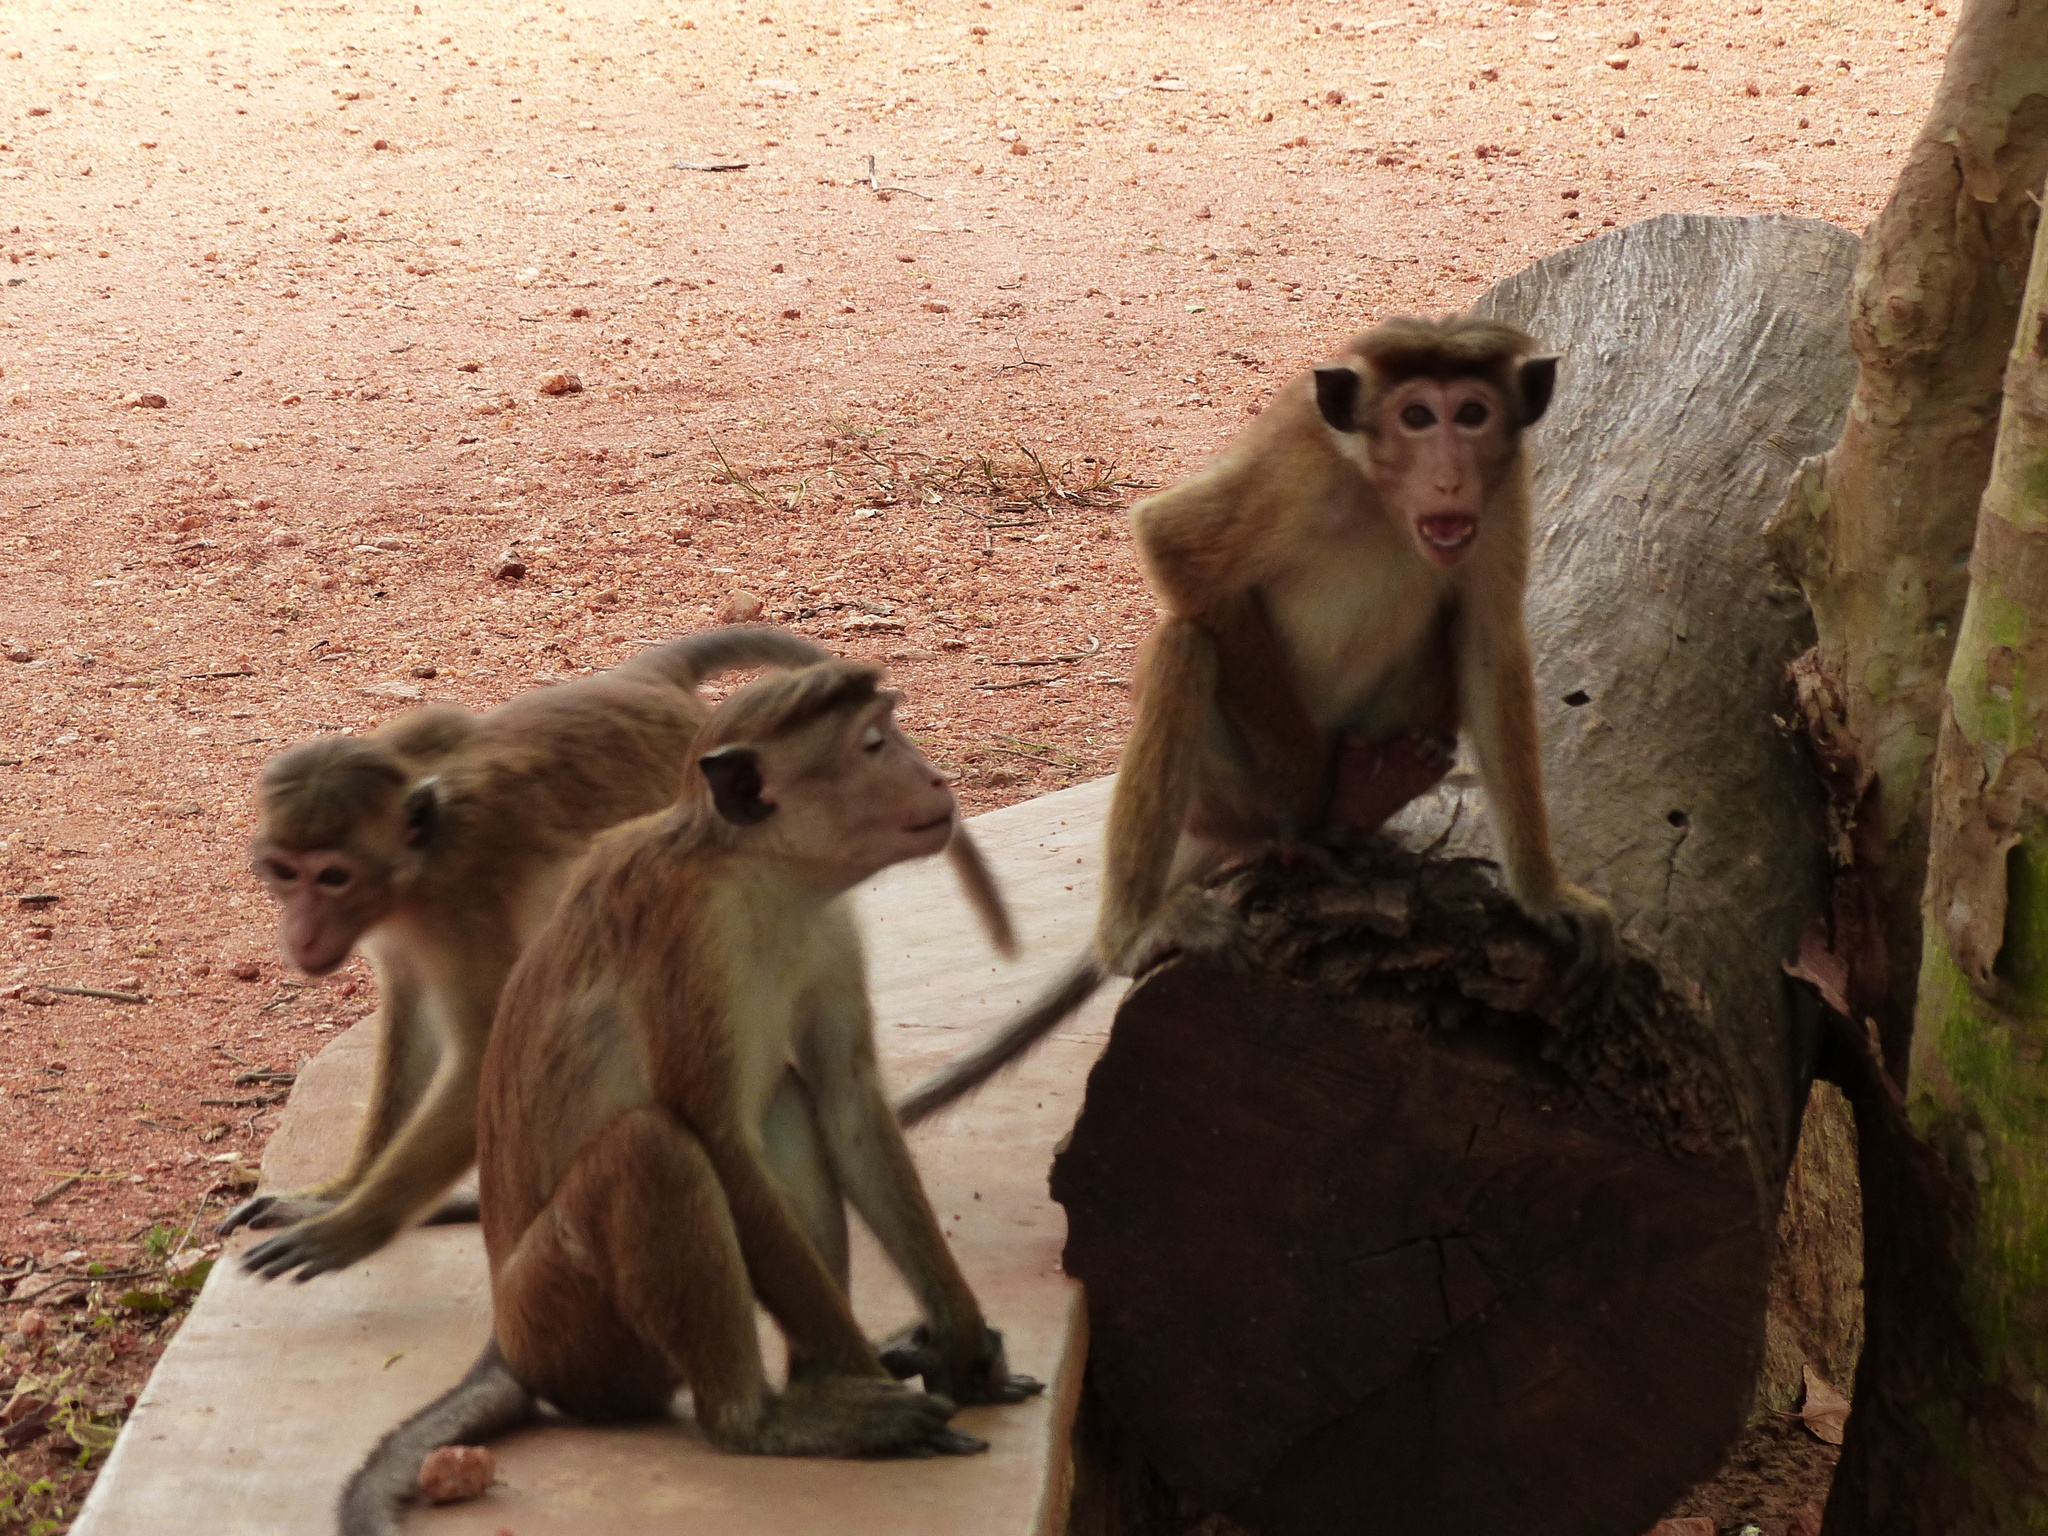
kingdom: Animalia
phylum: Chordata
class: Mammalia
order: Primates
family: Cercopithecidae
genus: Macaca
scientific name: Macaca sinica
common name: Toque macaque
